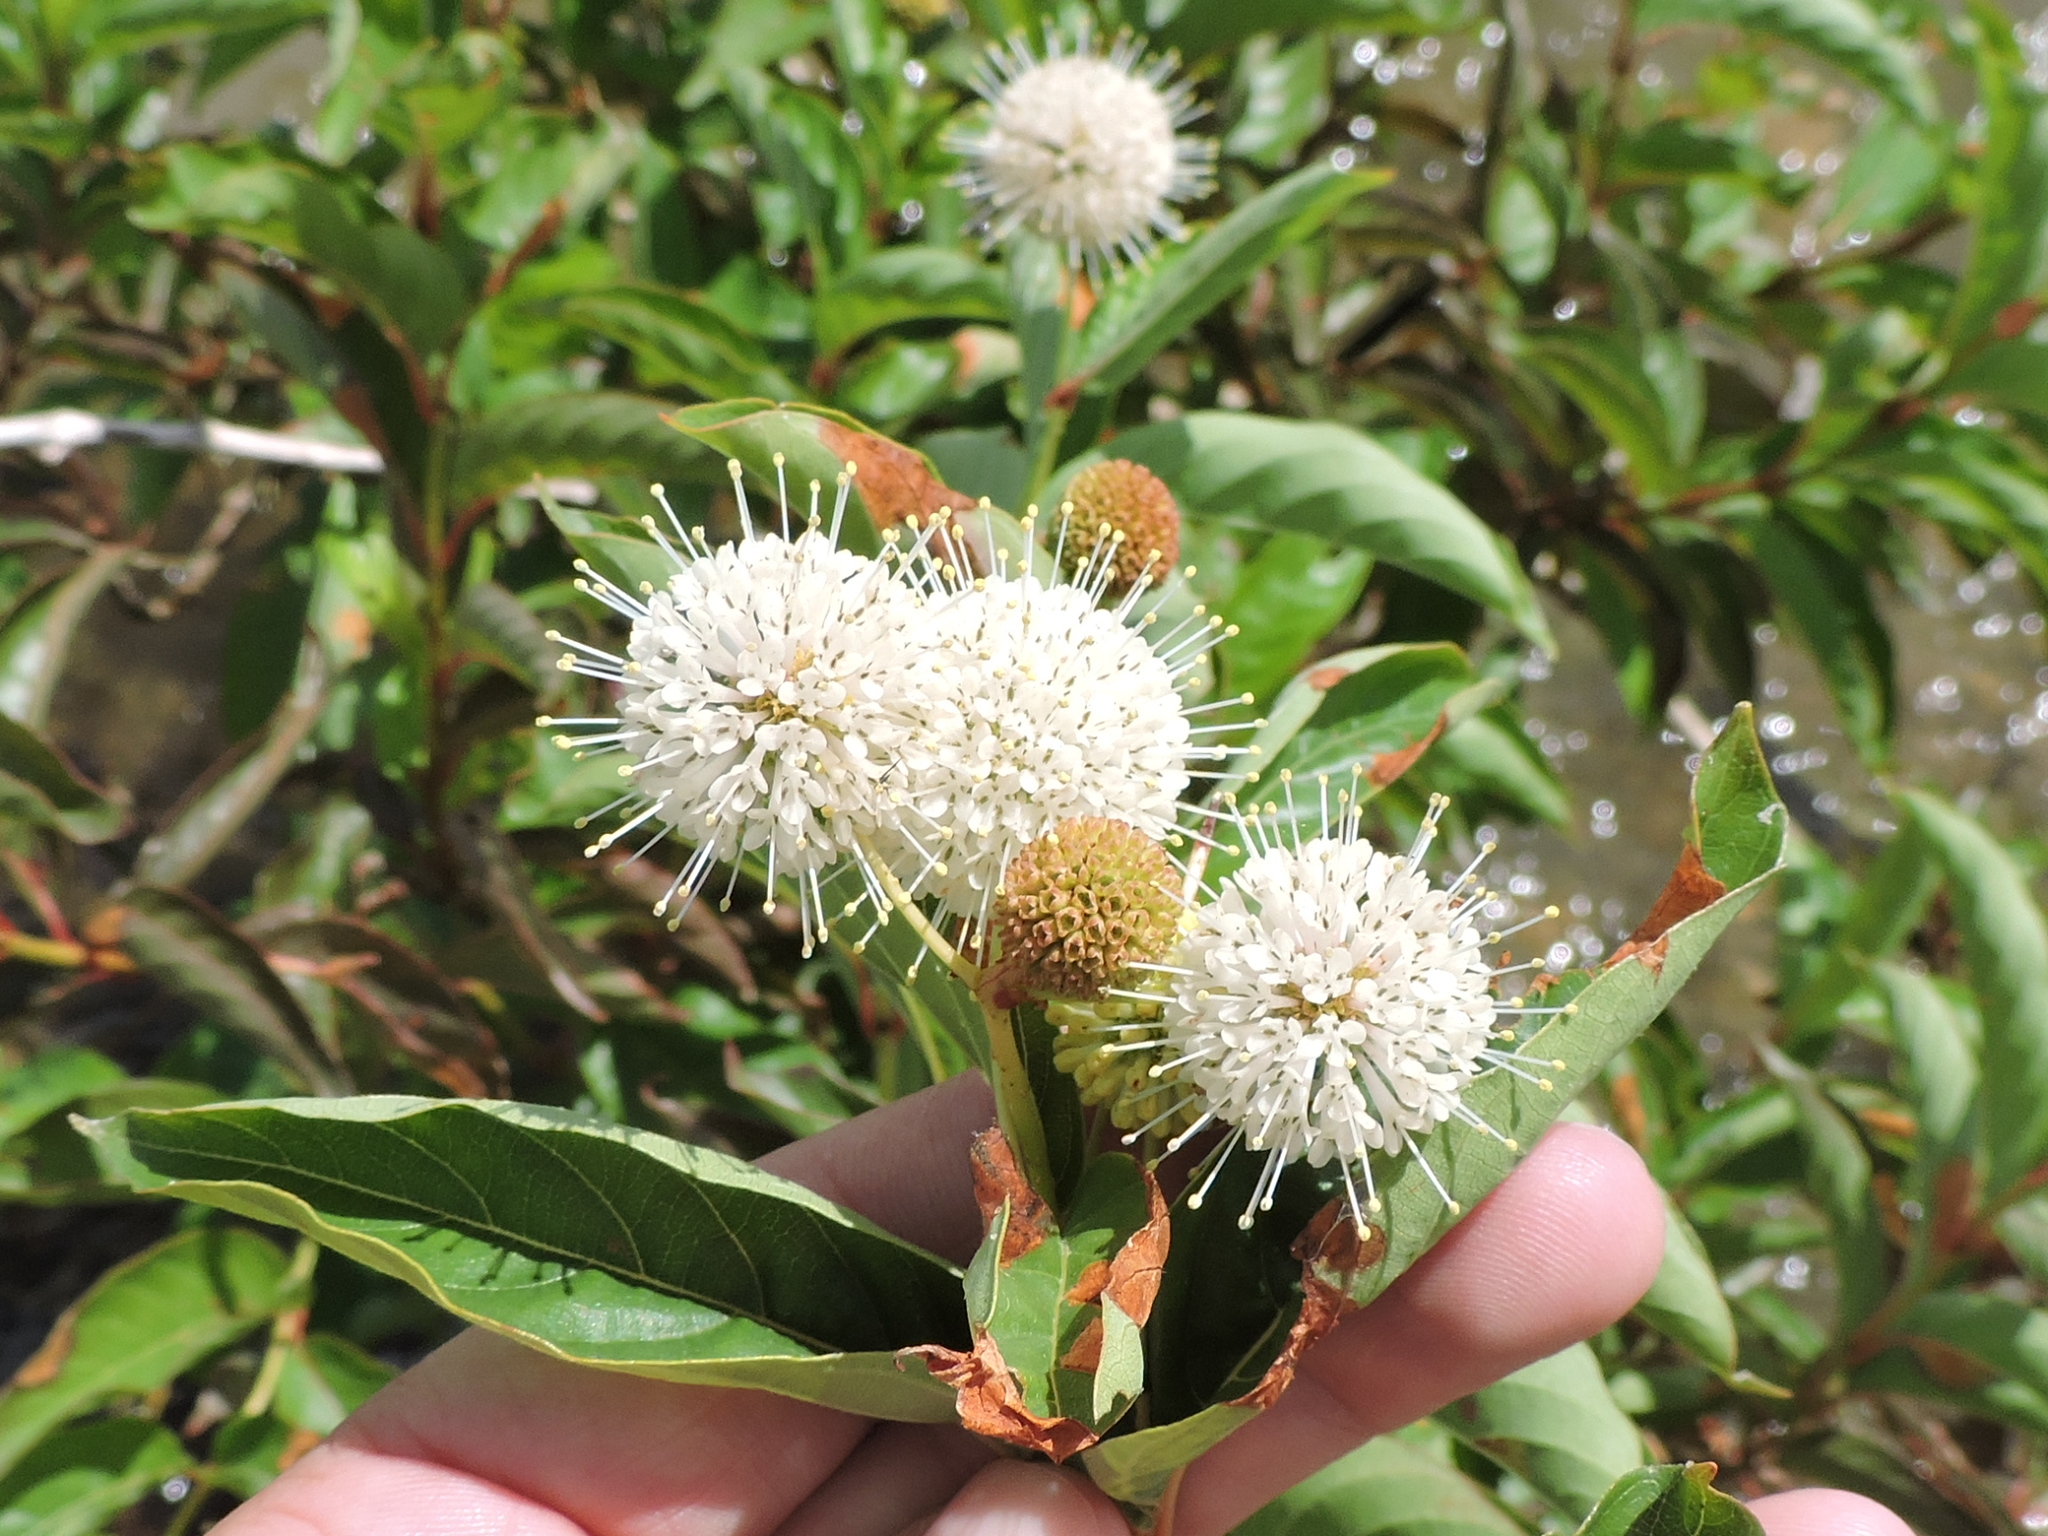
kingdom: Plantae
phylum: Tracheophyta
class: Magnoliopsida
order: Gentianales
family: Rubiaceae
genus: Cephalanthus
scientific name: Cephalanthus occidentalis
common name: Button-willow
